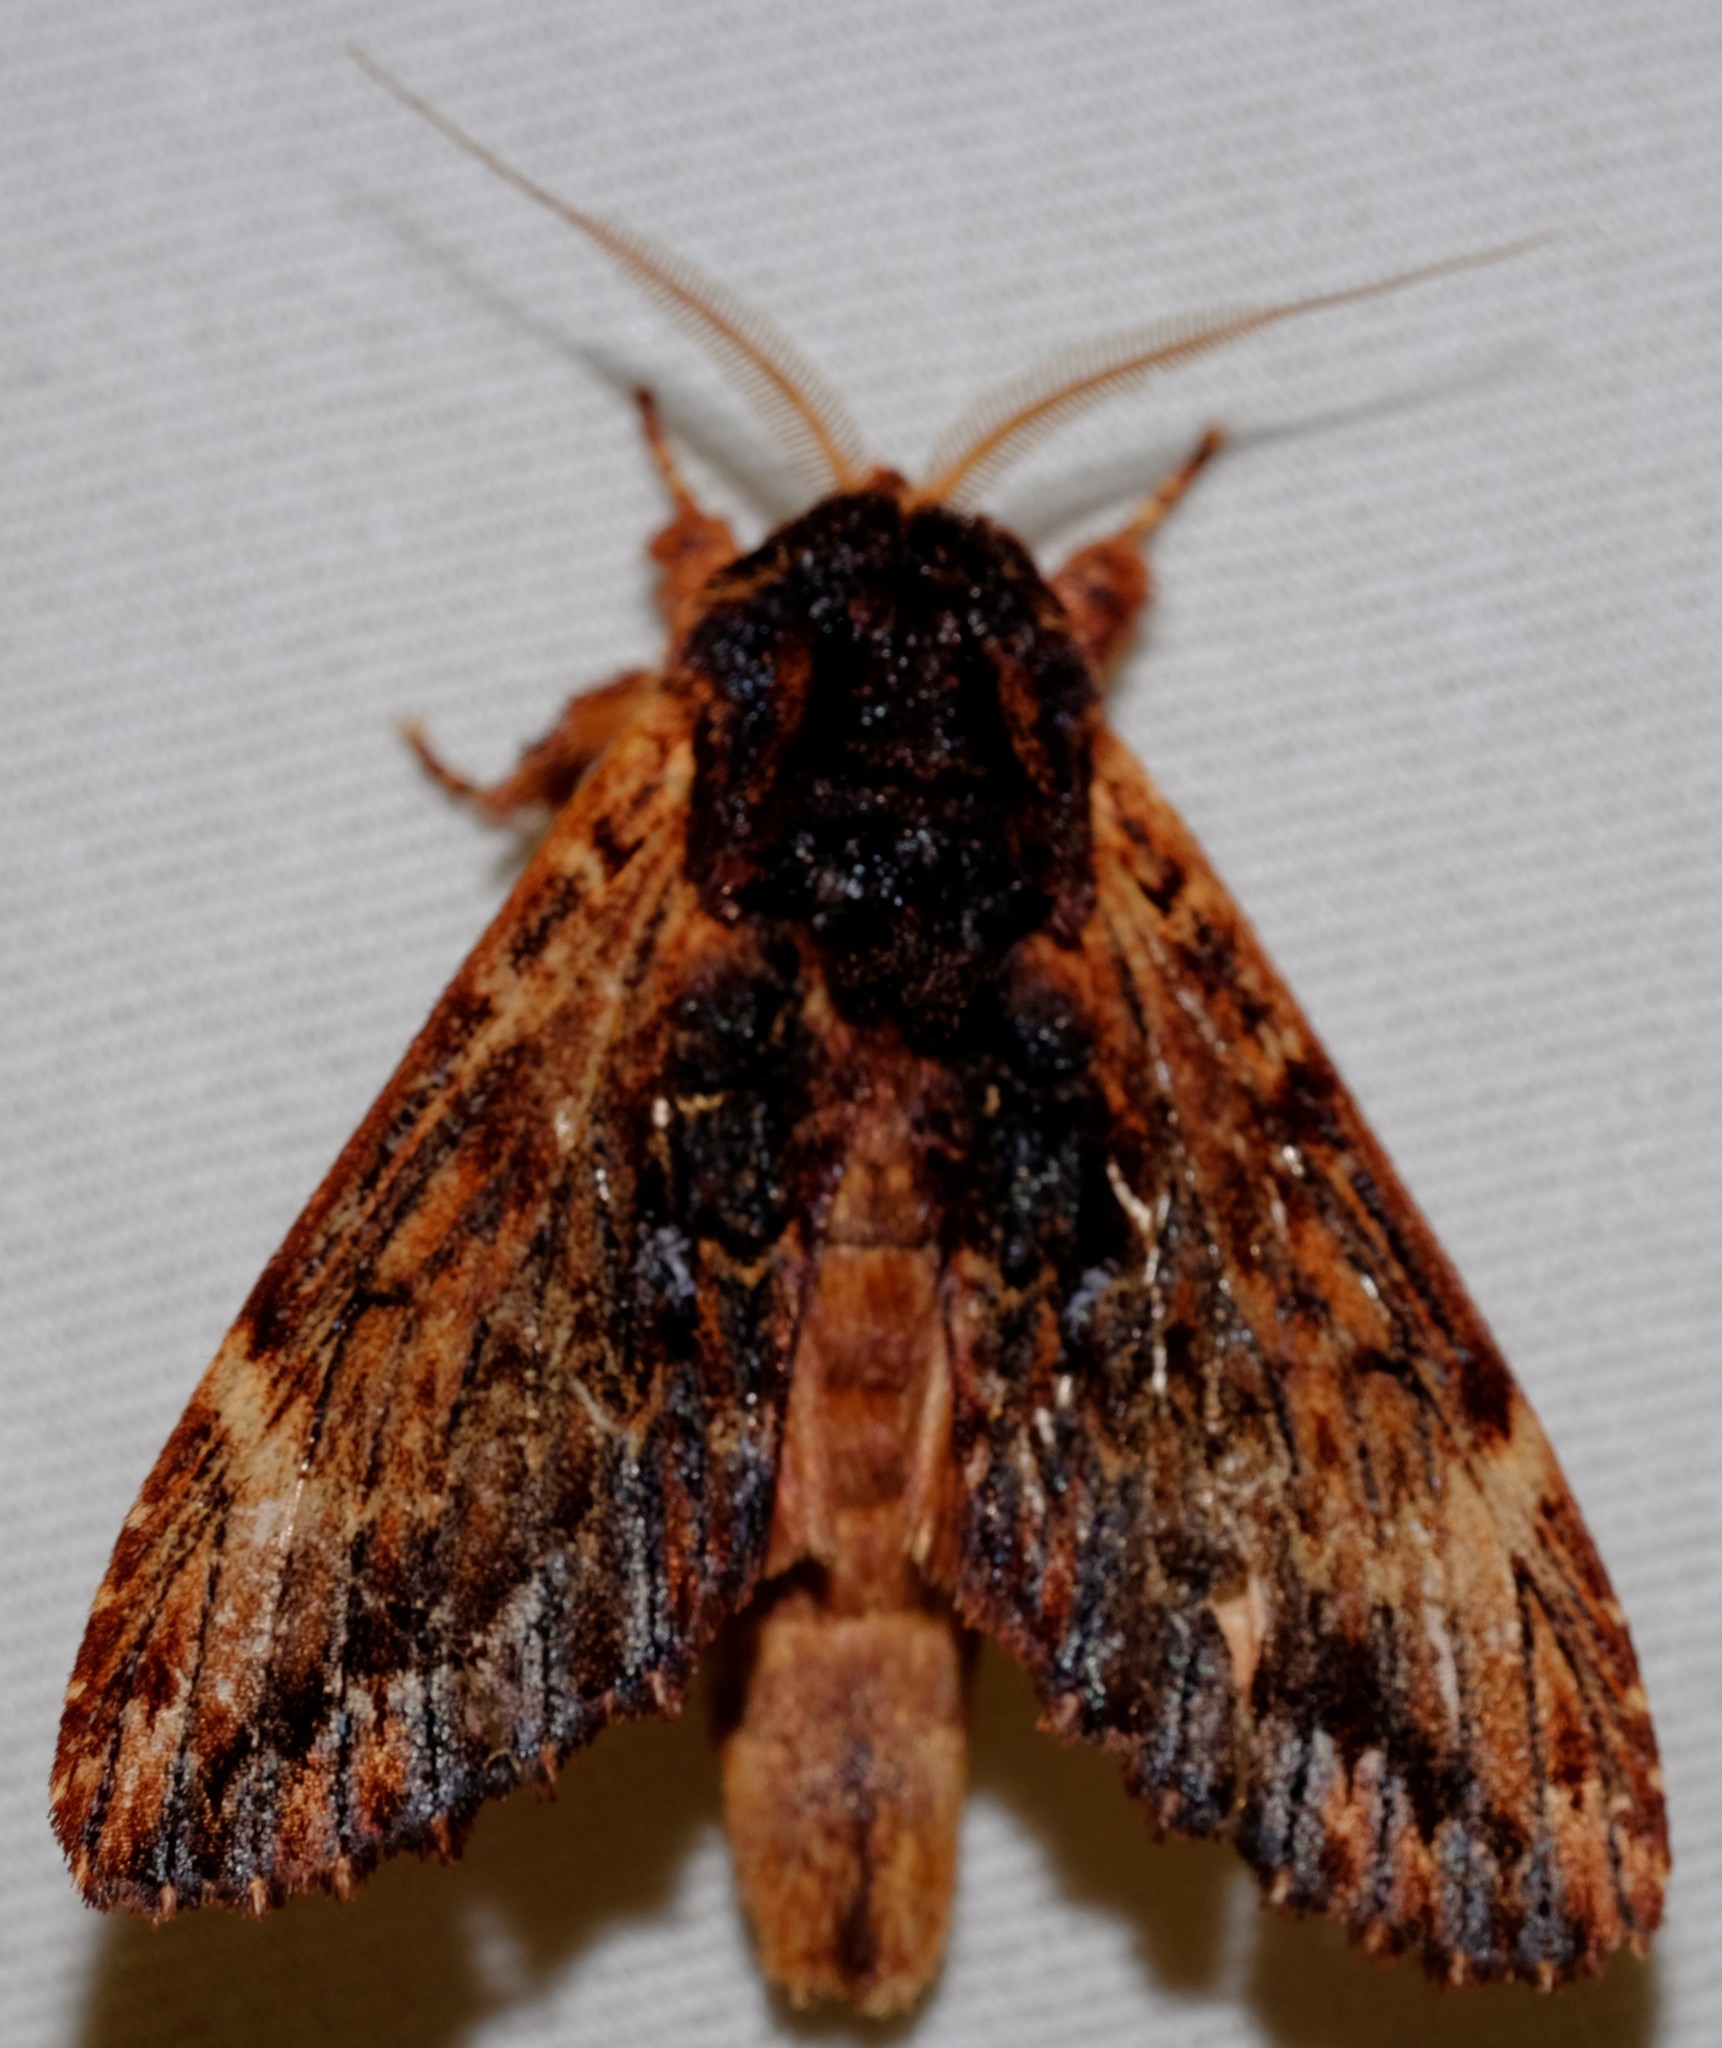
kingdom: Animalia
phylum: Arthropoda
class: Insecta
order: Lepidoptera
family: Notodontidae
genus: Sorama
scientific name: Sorama bicolor
